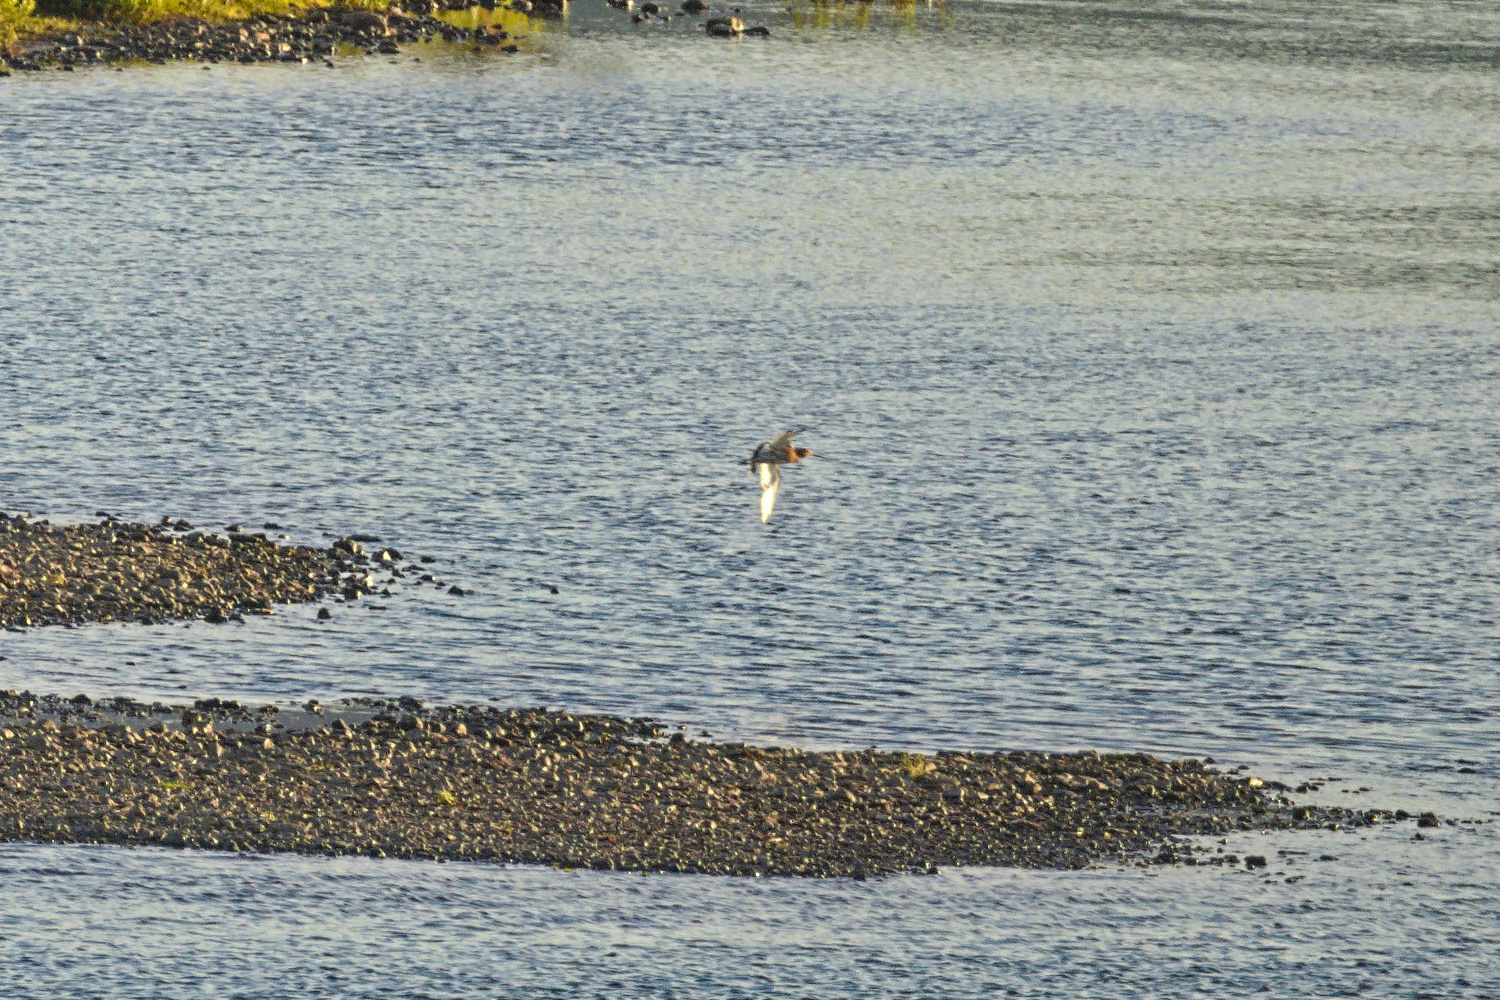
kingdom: Animalia
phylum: Chordata
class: Aves
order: Charadriiformes
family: Scolopacidae
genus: Limosa
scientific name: Limosa limosa
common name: Black-tailed godwit
